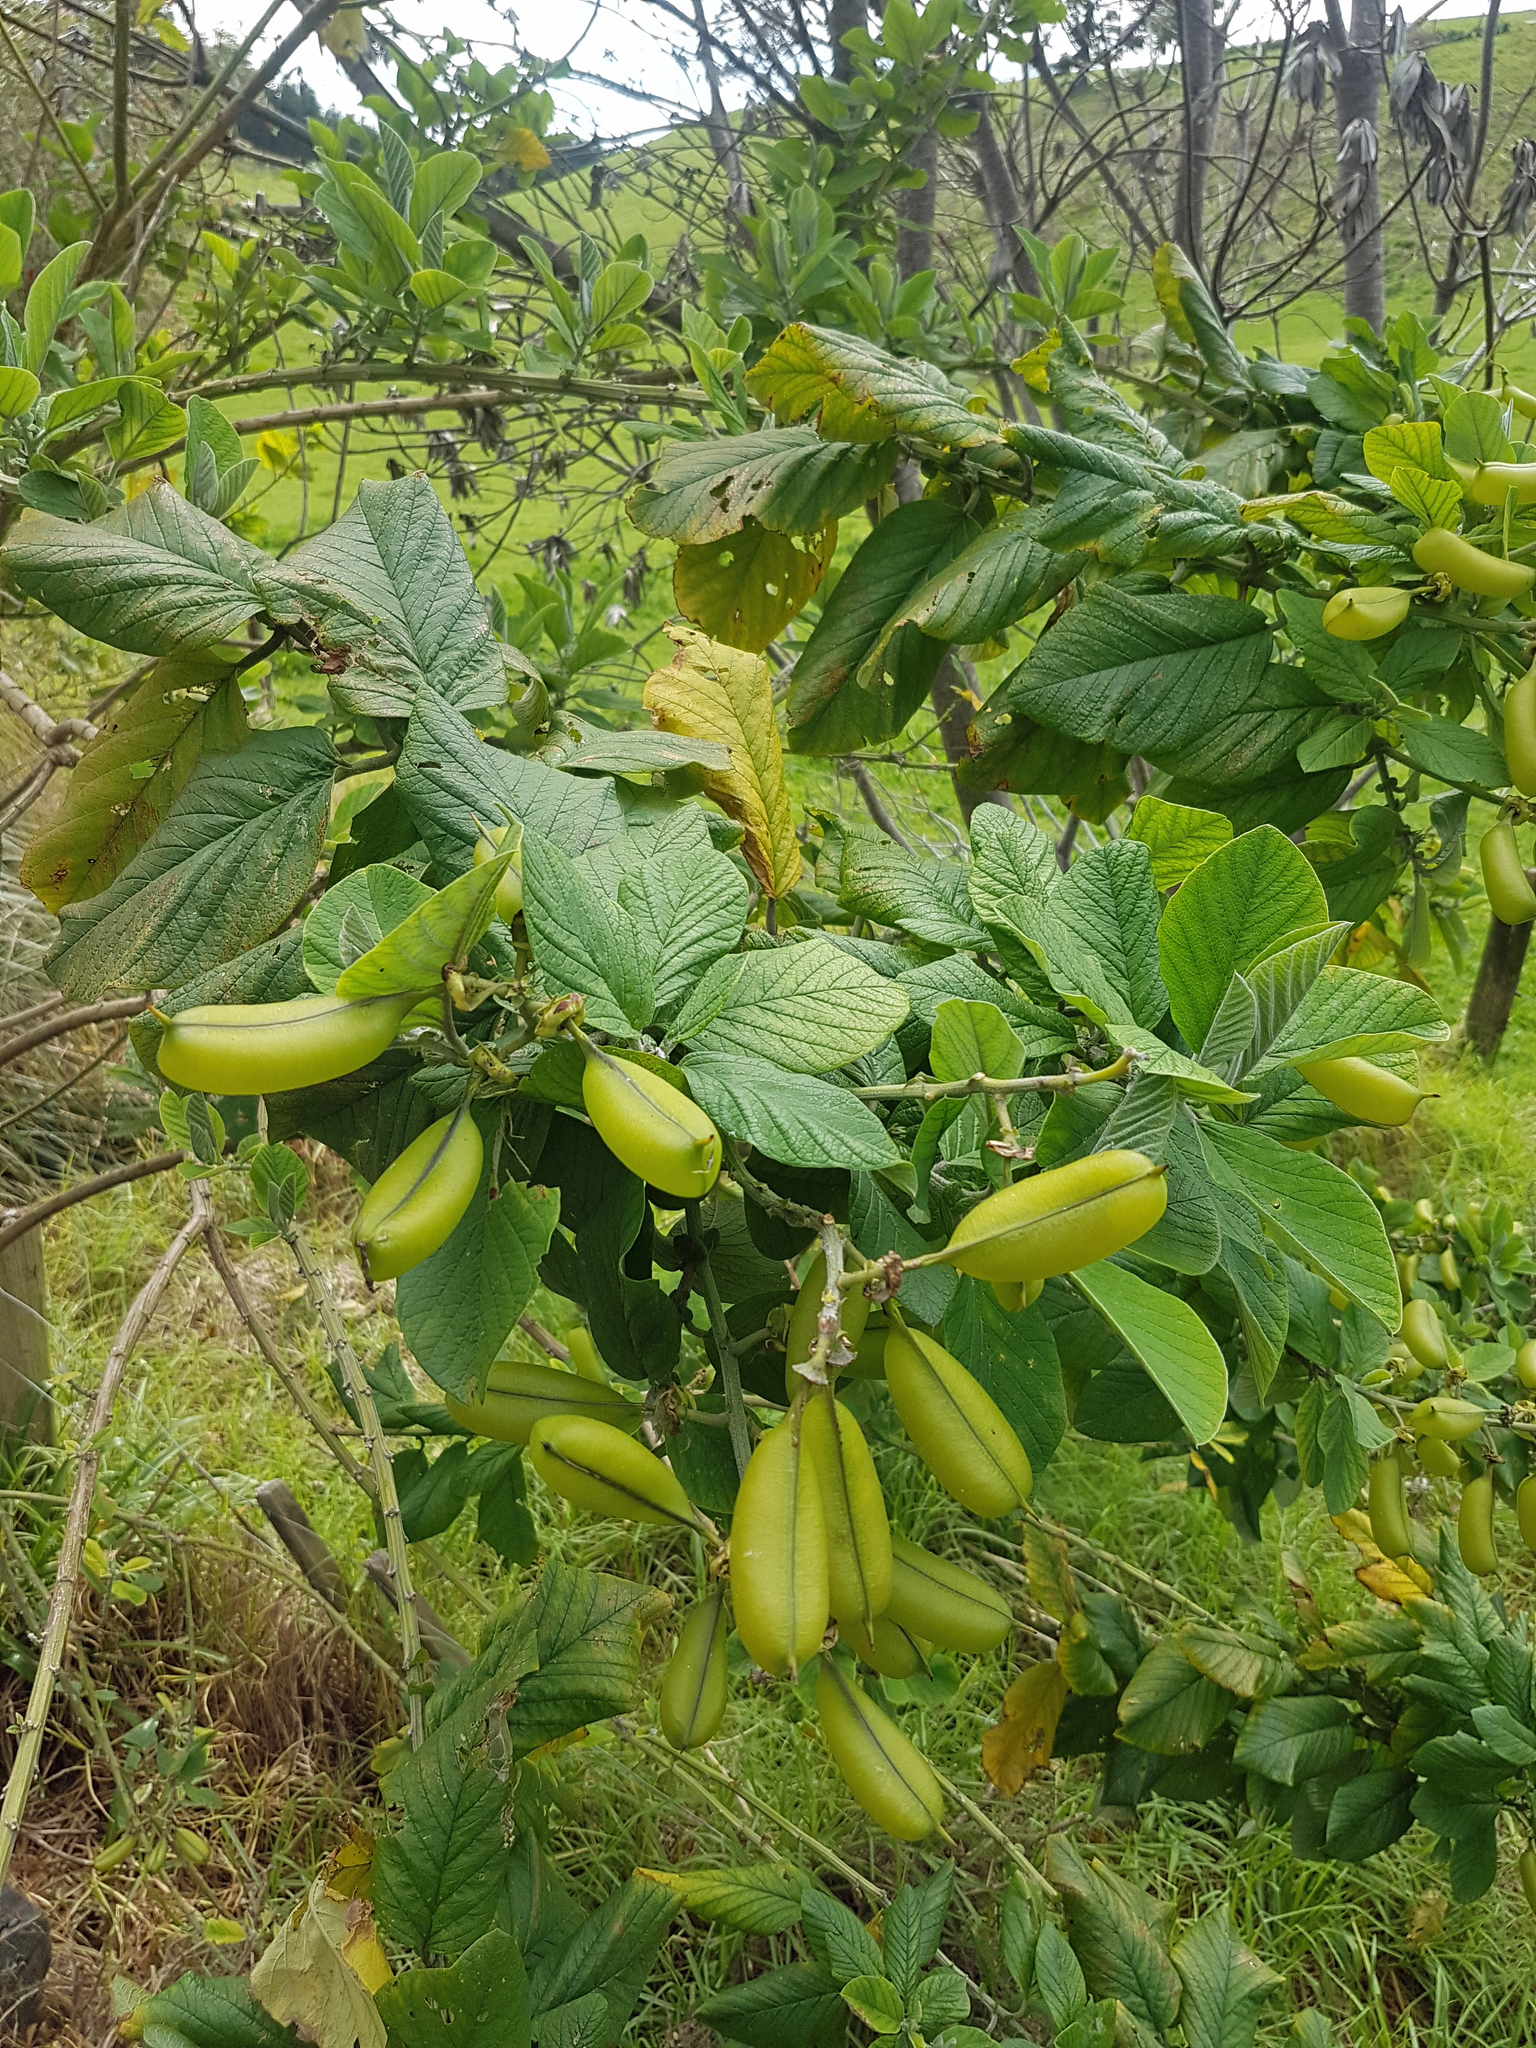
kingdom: Plantae
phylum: Tracheophyta
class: Magnoliopsida
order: Fabales
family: Fabaceae
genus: Crotalaria
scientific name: Crotalaria beddomeana
